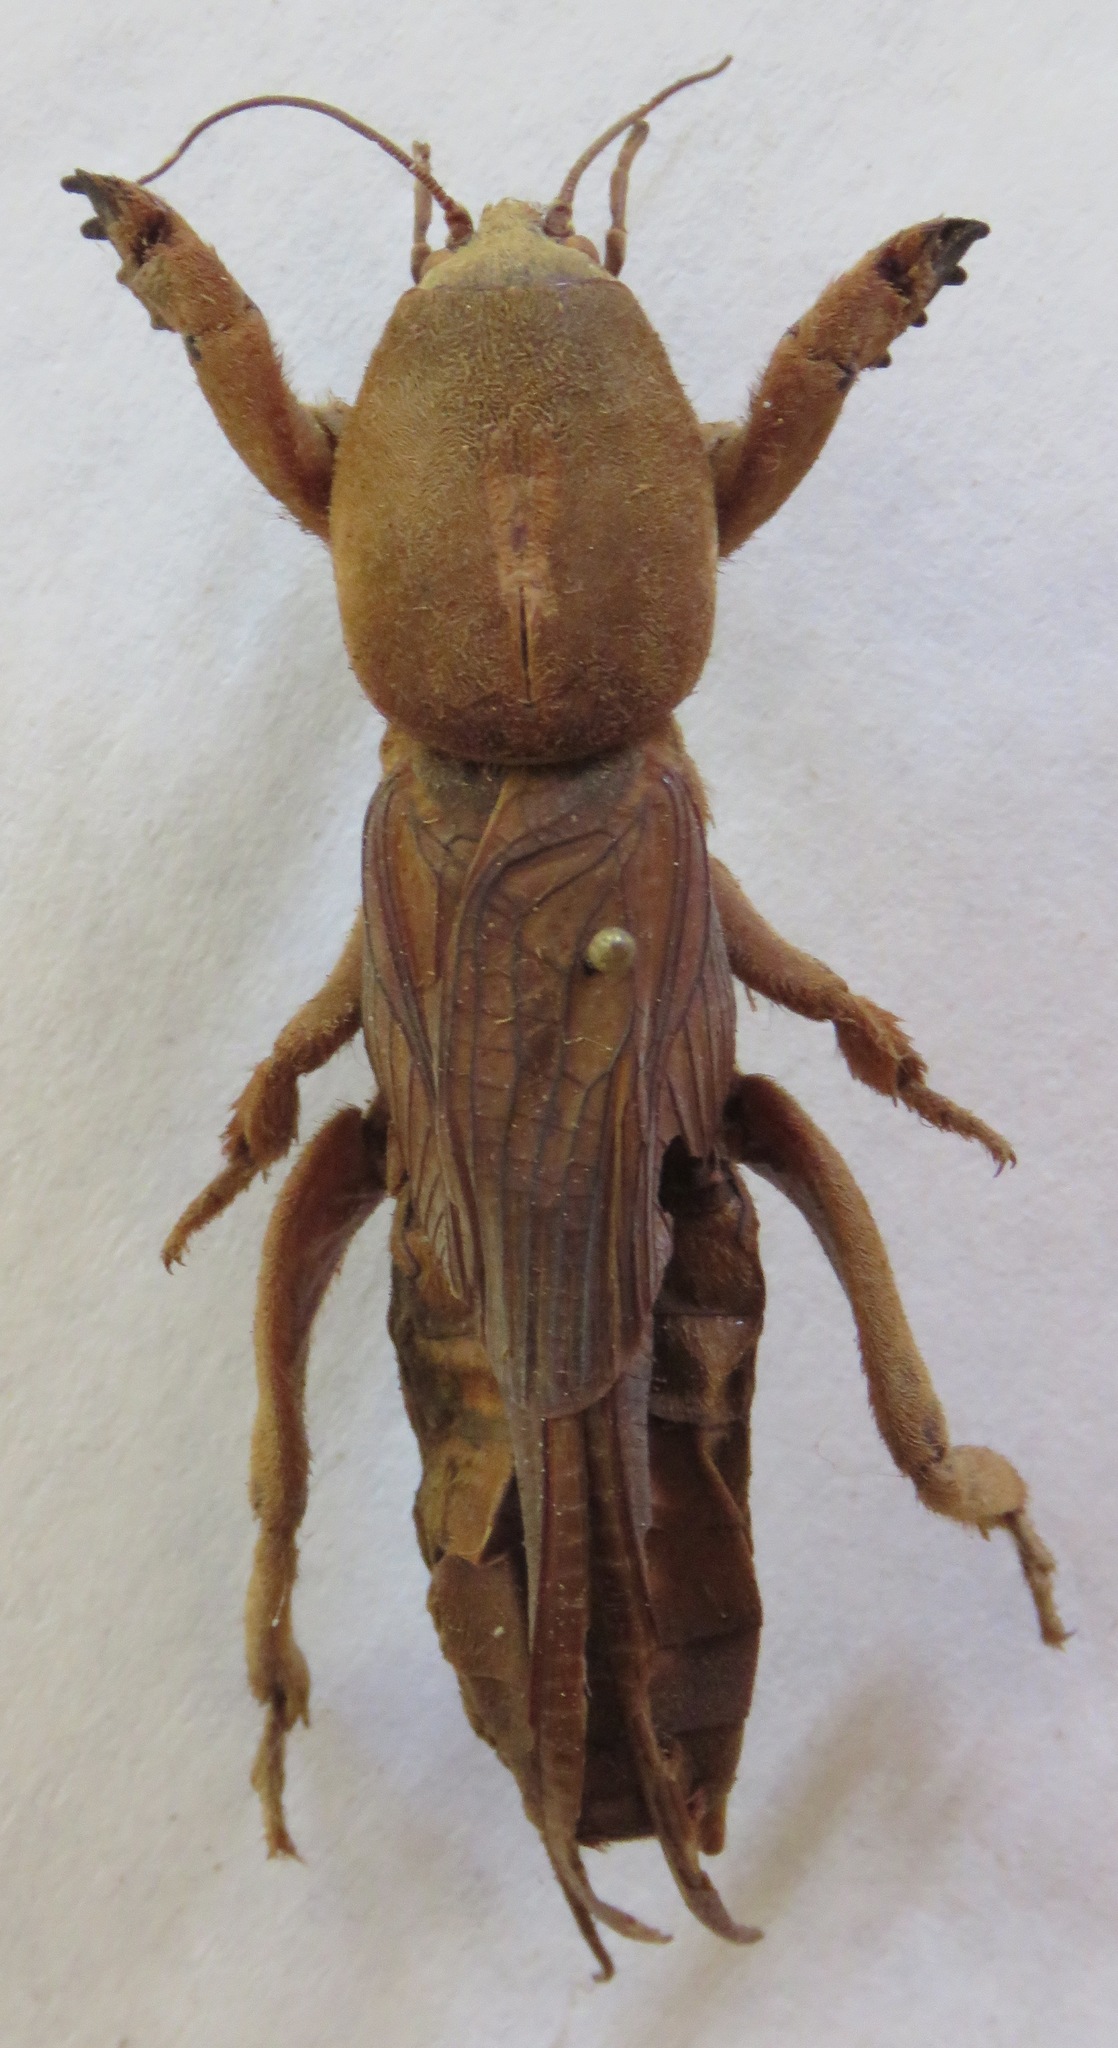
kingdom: Animalia
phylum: Arthropoda
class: Insecta
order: Orthoptera
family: Gryllotalpidae
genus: Gryllotalpa
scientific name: Gryllotalpa gryllotalpa
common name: European mole cricket
